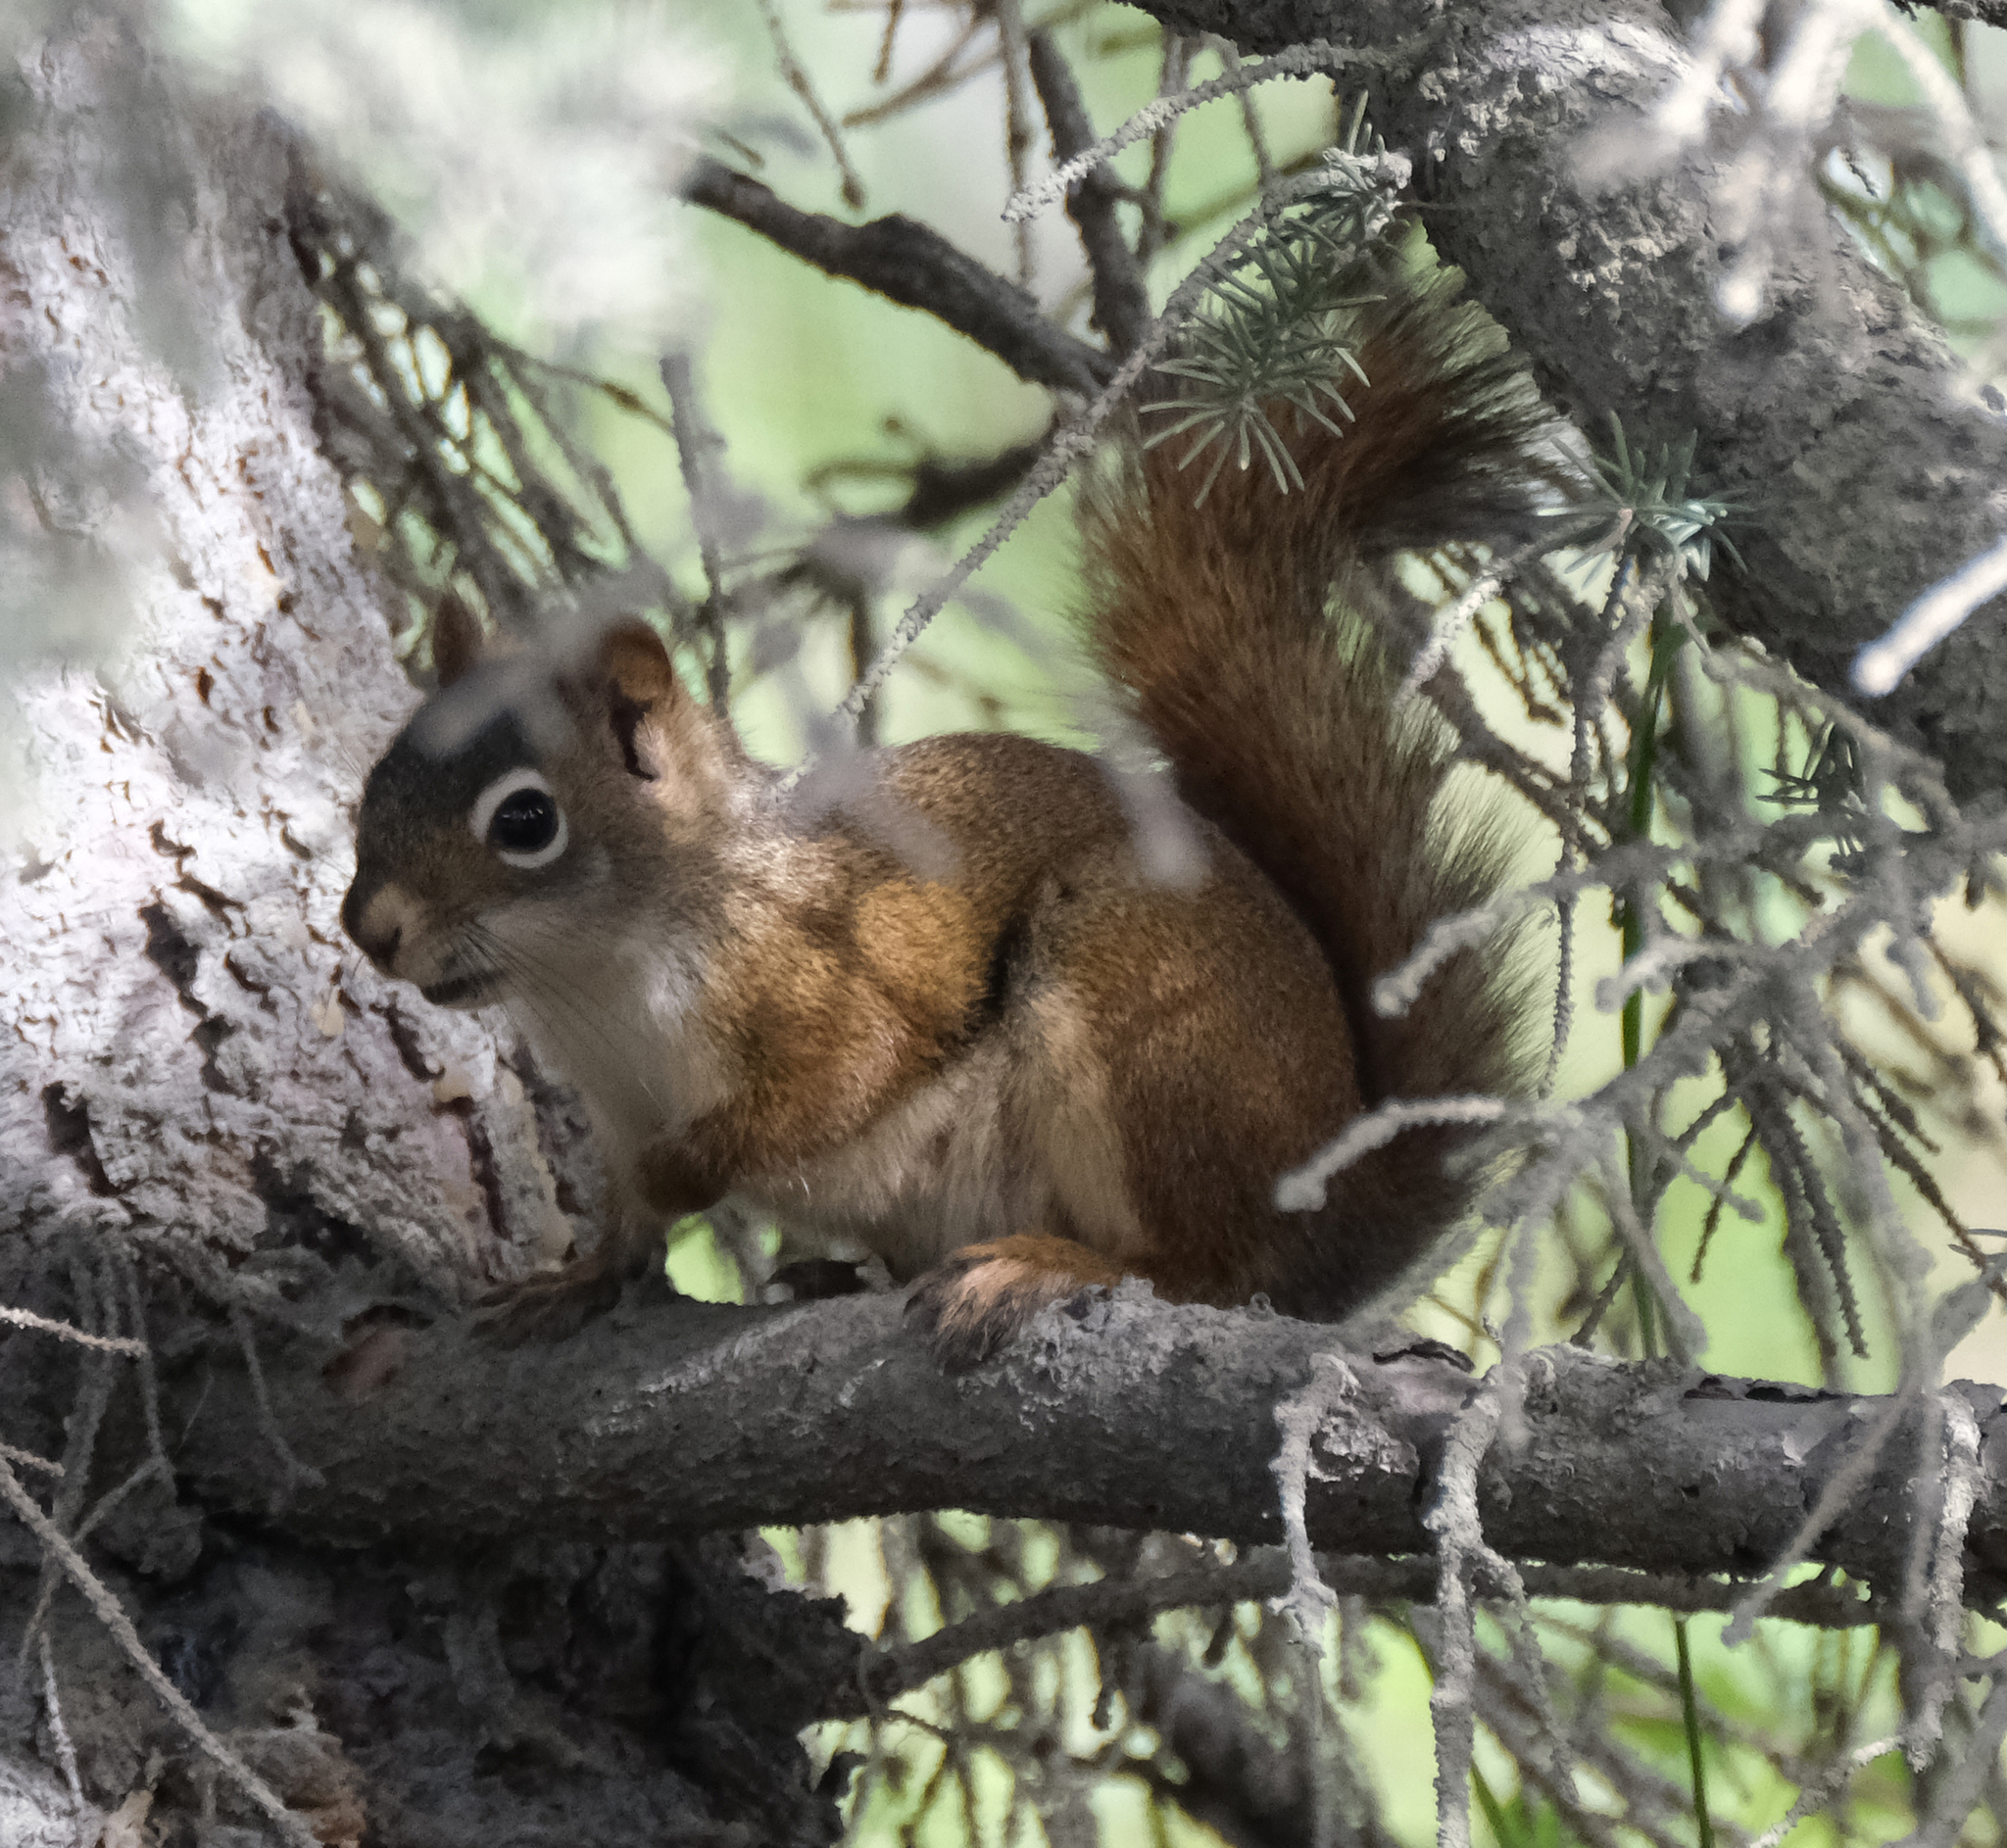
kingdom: Animalia
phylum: Chordata
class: Mammalia
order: Rodentia
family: Sciuridae
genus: Tamiasciurus
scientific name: Tamiasciurus hudsonicus
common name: Red squirrel
